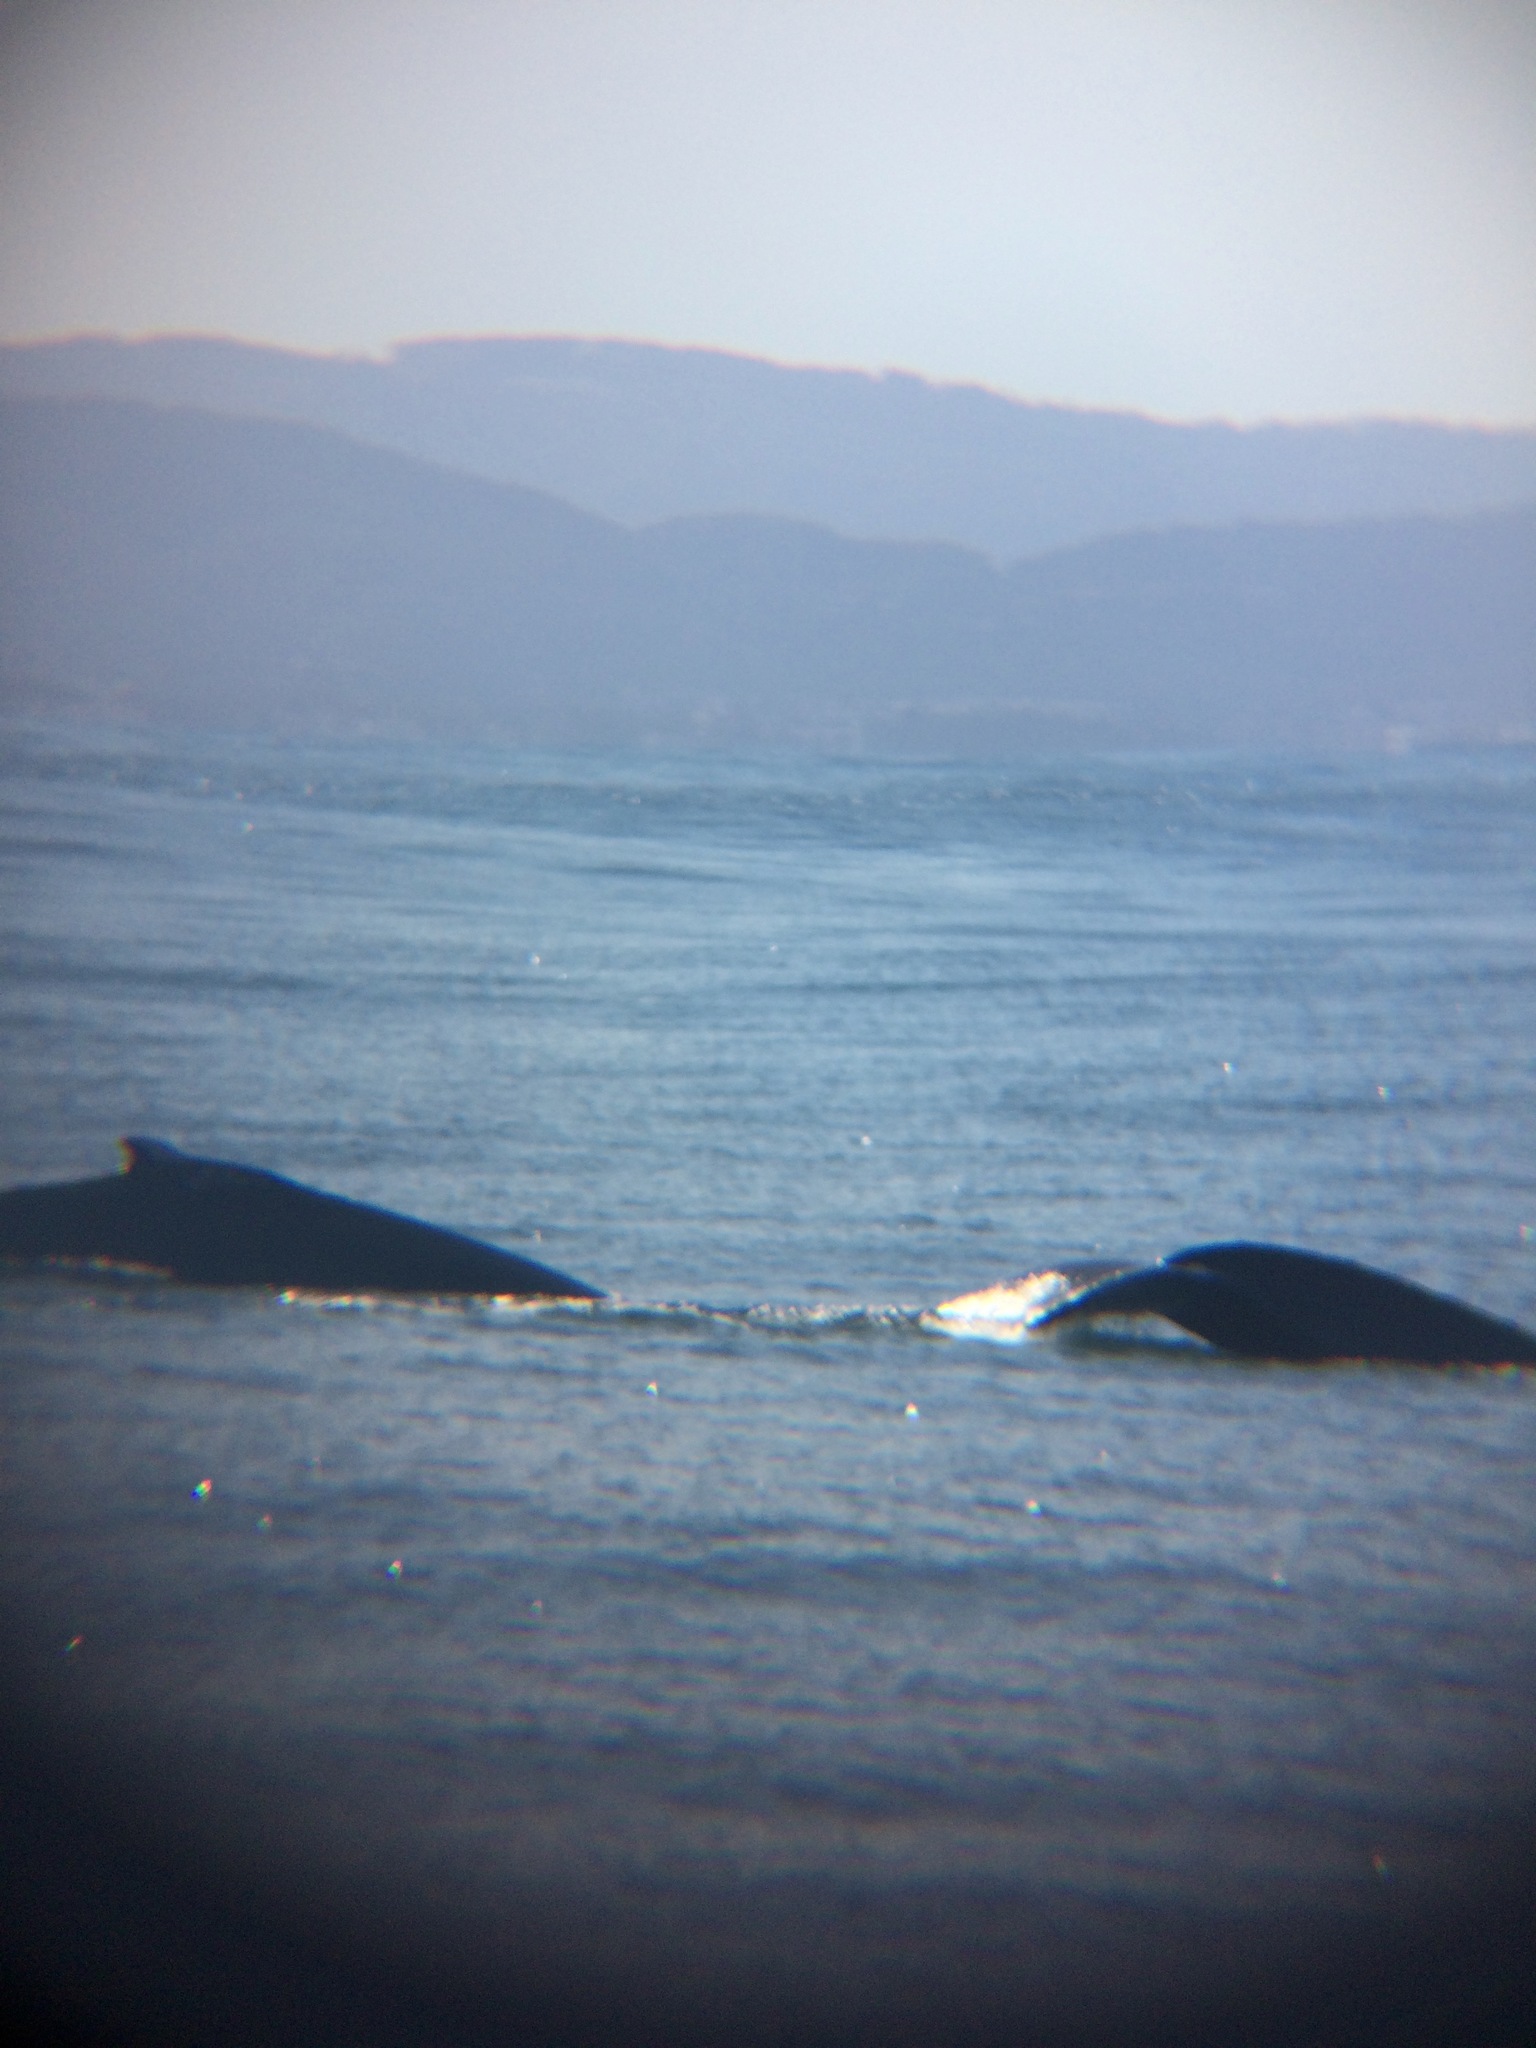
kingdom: Animalia
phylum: Chordata
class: Mammalia
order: Cetacea
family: Balaenopteridae
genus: Megaptera
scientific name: Megaptera novaeangliae
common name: Humpback whale
